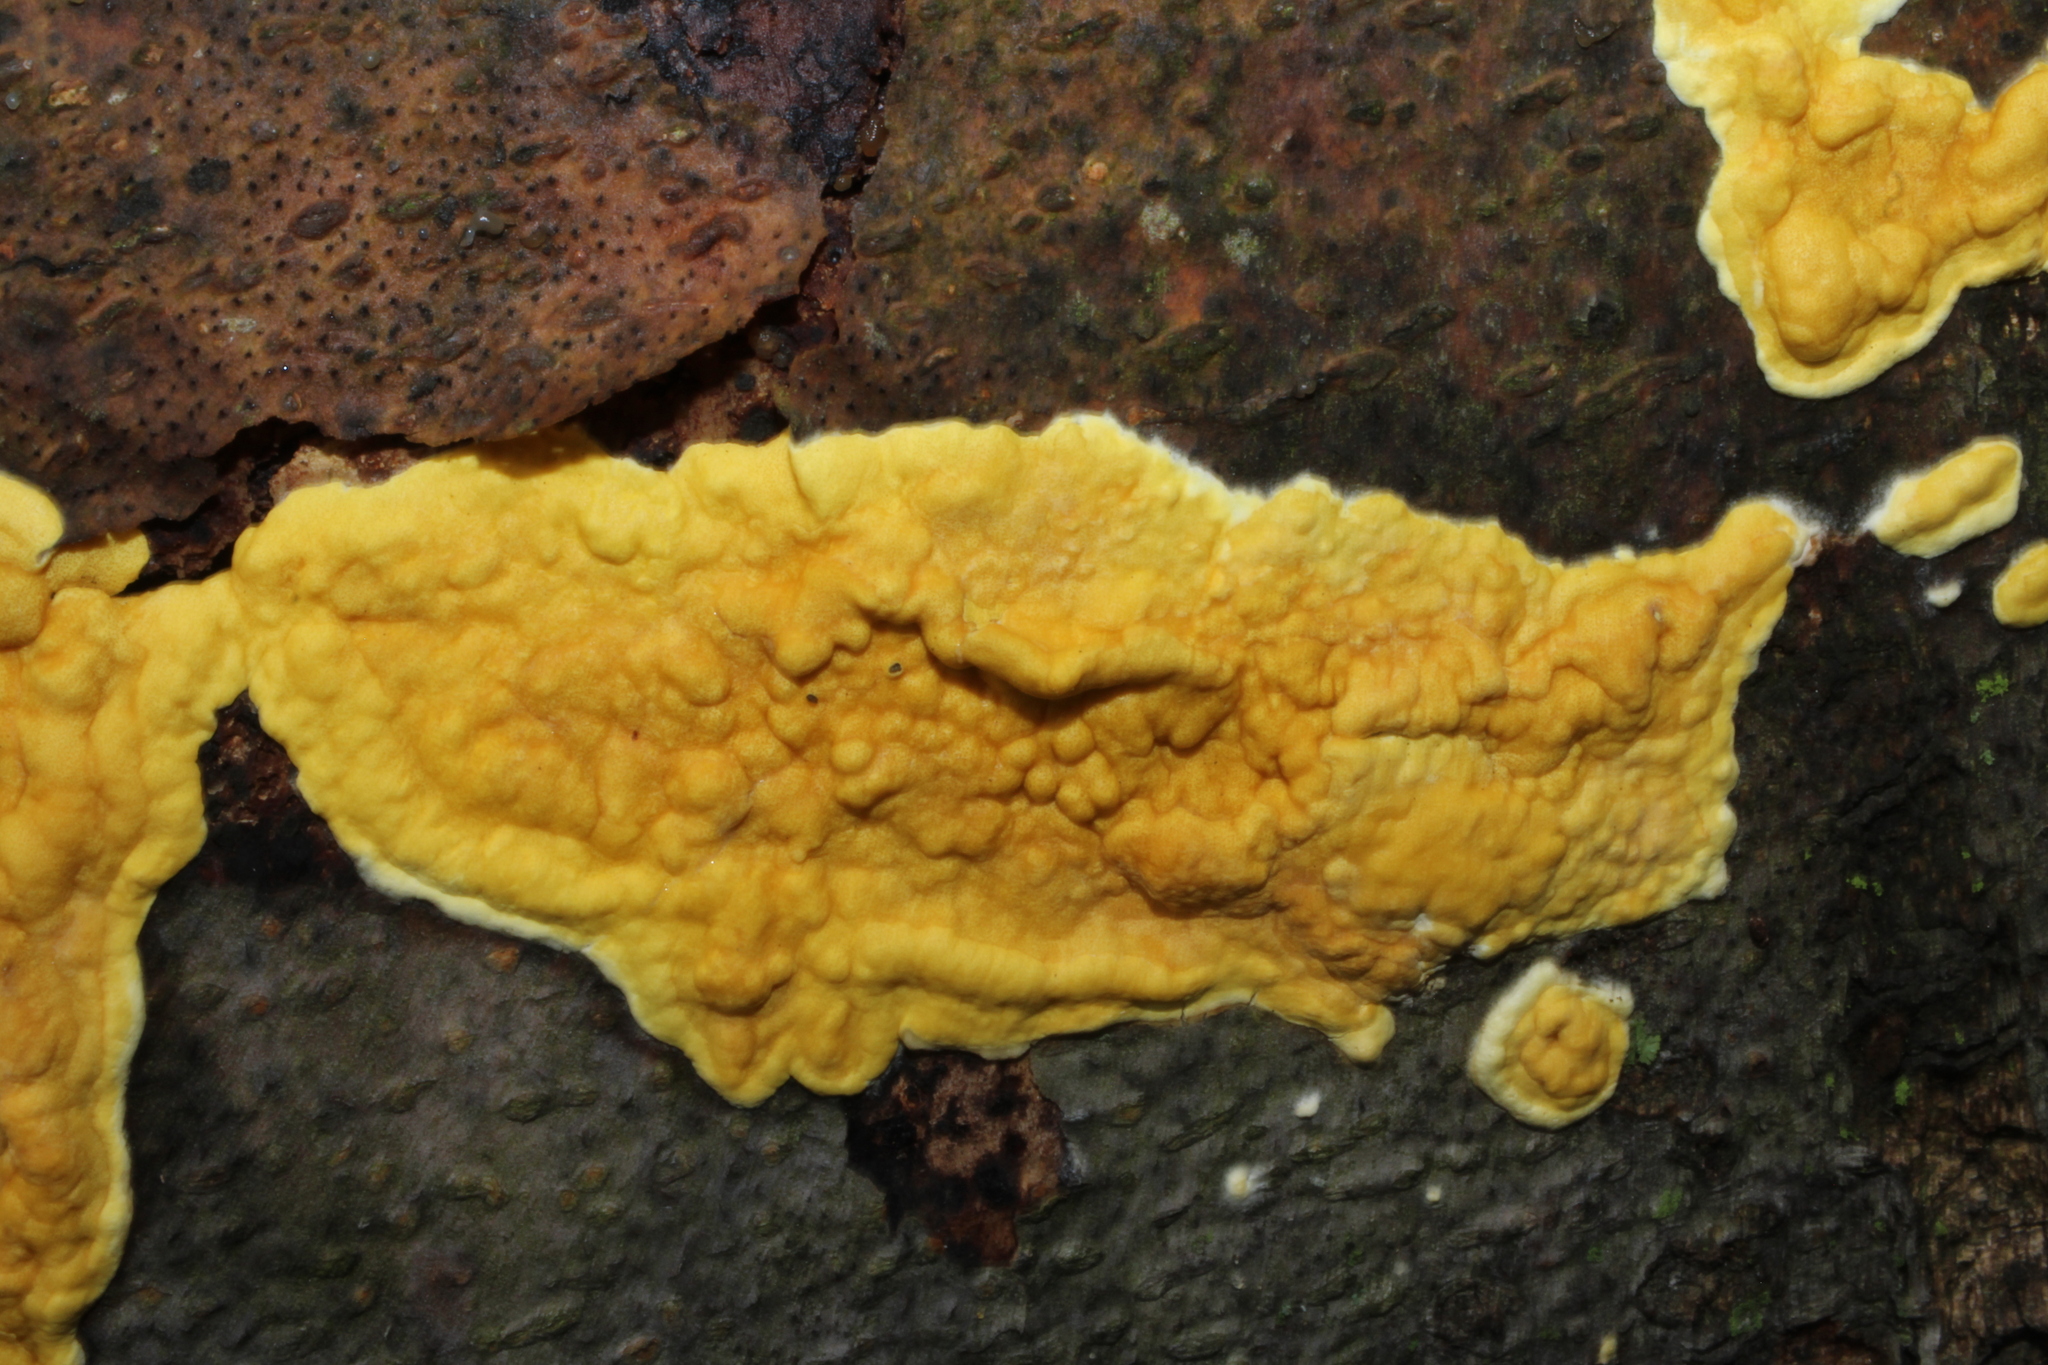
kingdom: Fungi
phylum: Ascomycota
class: Sordariomycetes
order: Hypocreales
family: Hypocreaceae
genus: Trichoderma
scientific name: Trichoderma sulphureum
